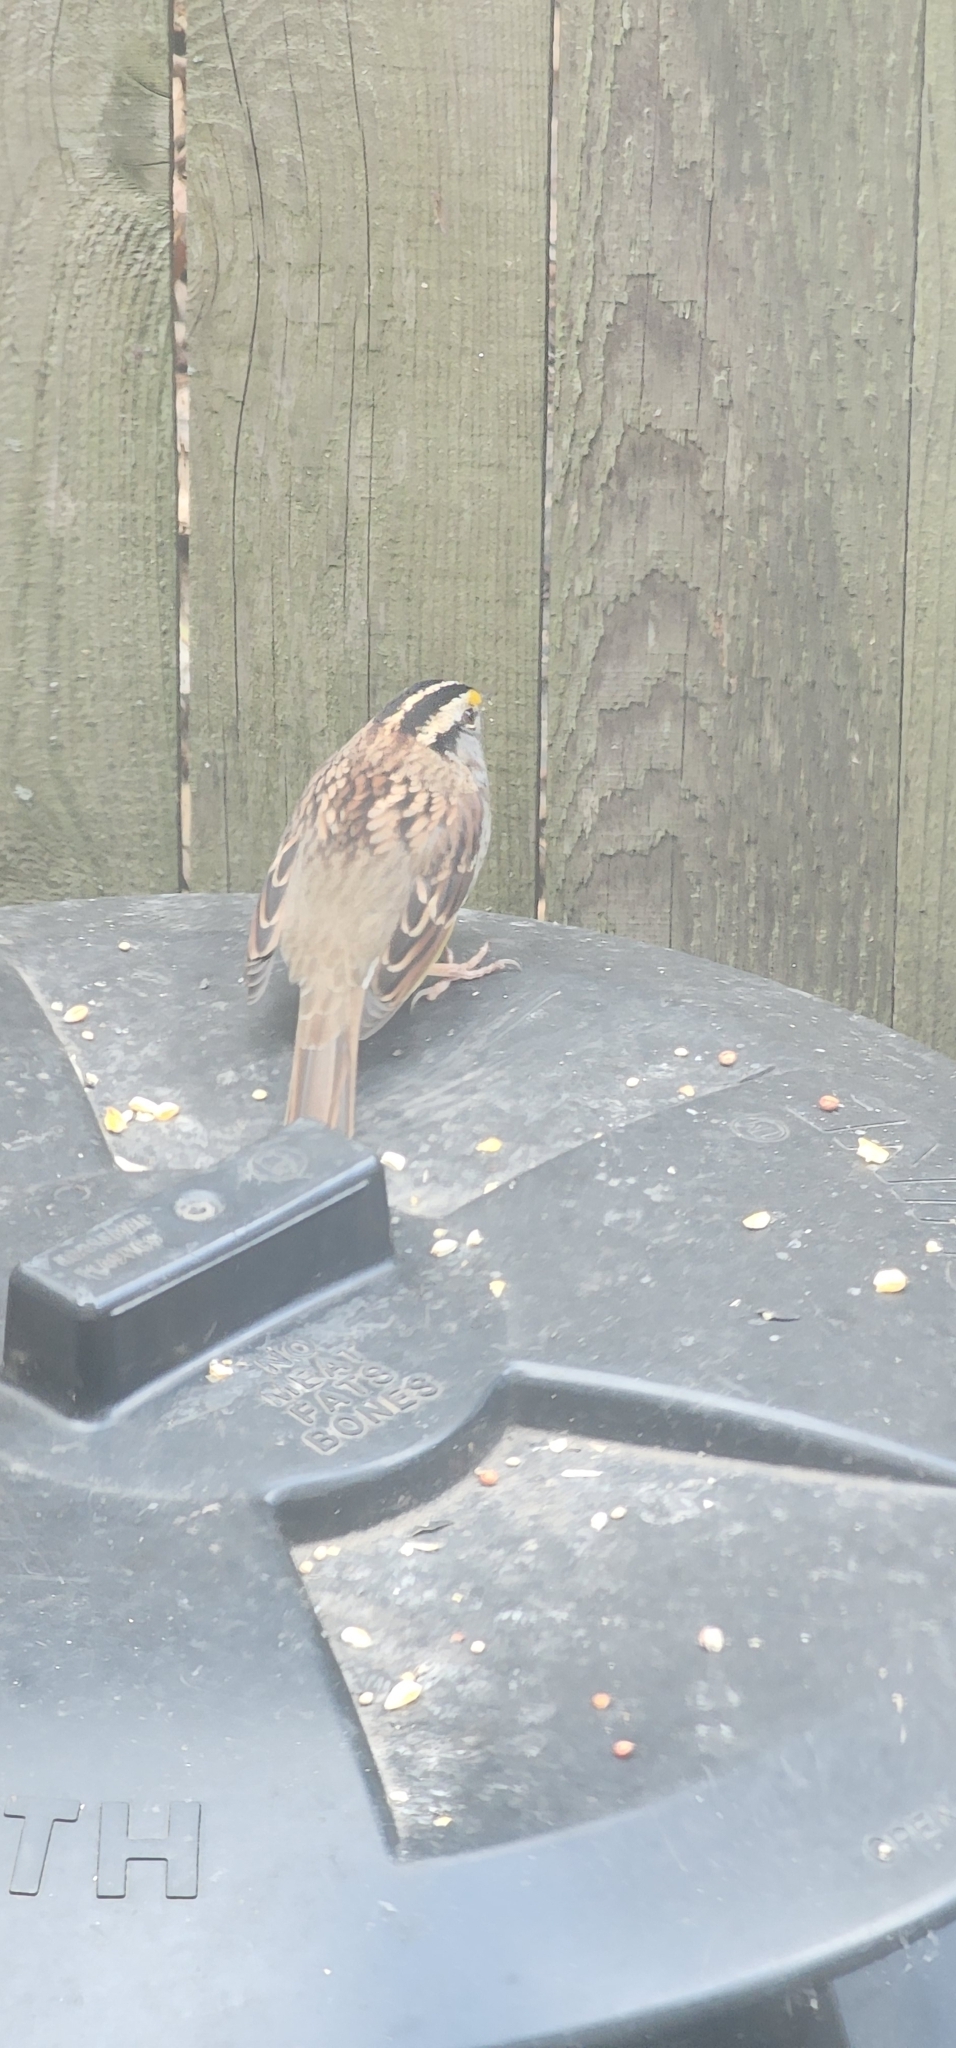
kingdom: Animalia
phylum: Chordata
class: Aves
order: Passeriformes
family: Passerellidae
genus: Zonotrichia
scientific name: Zonotrichia albicollis
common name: White-throated sparrow
